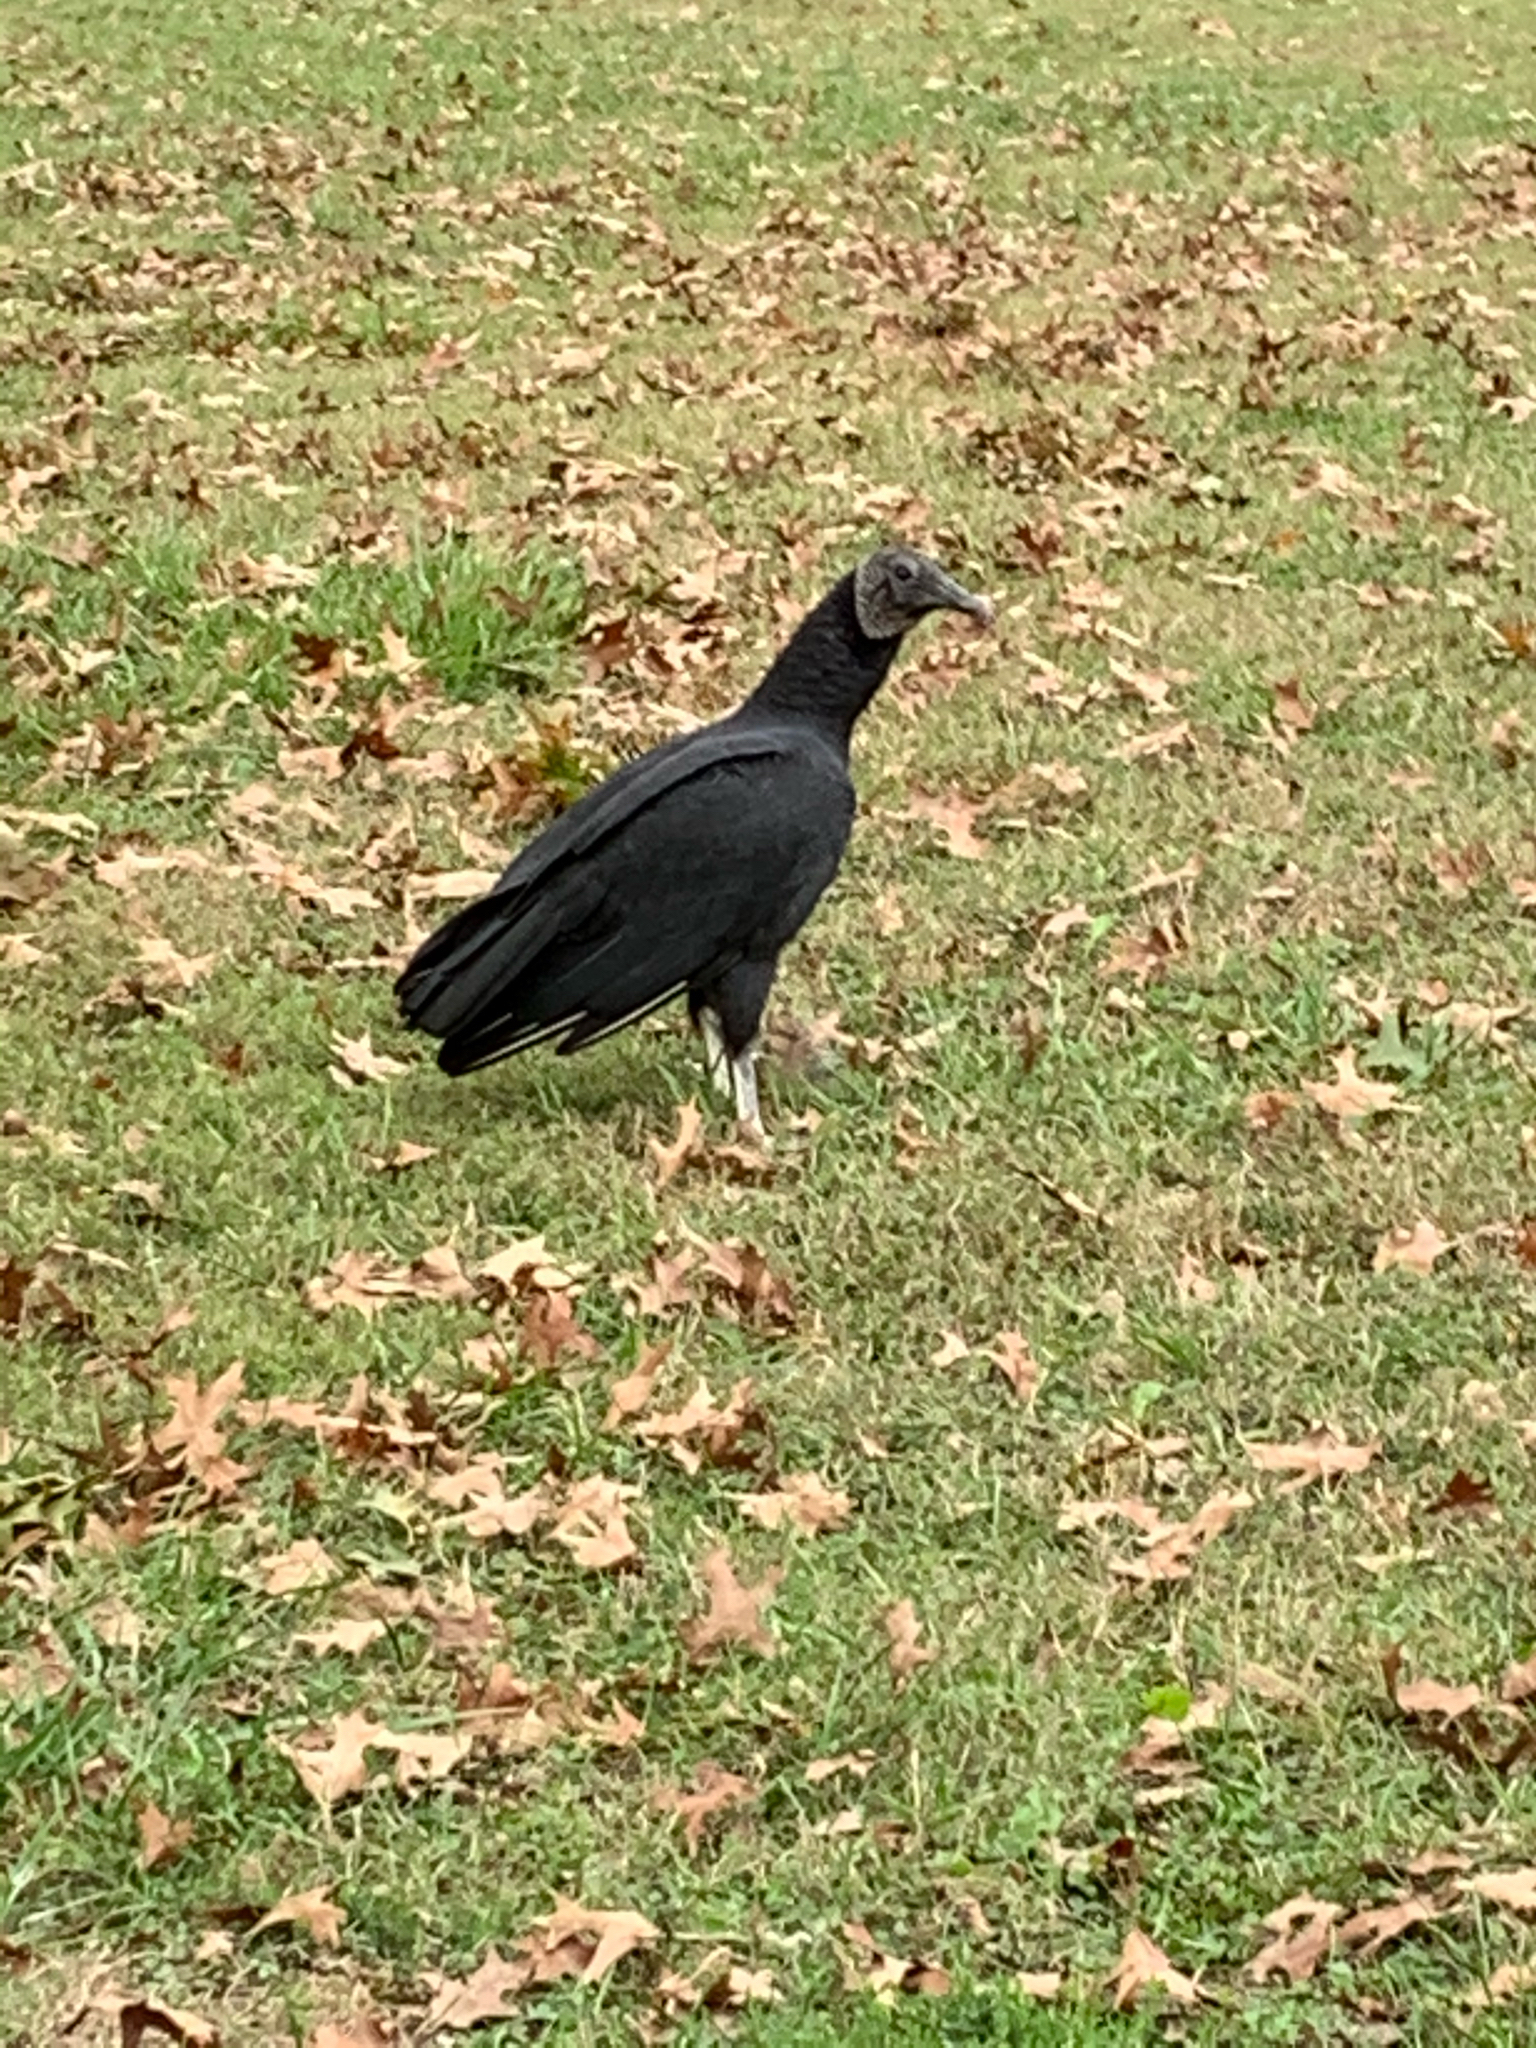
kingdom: Animalia
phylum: Chordata
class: Aves
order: Accipitriformes
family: Cathartidae
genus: Coragyps
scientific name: Coragyps atratus
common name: Black vulture
